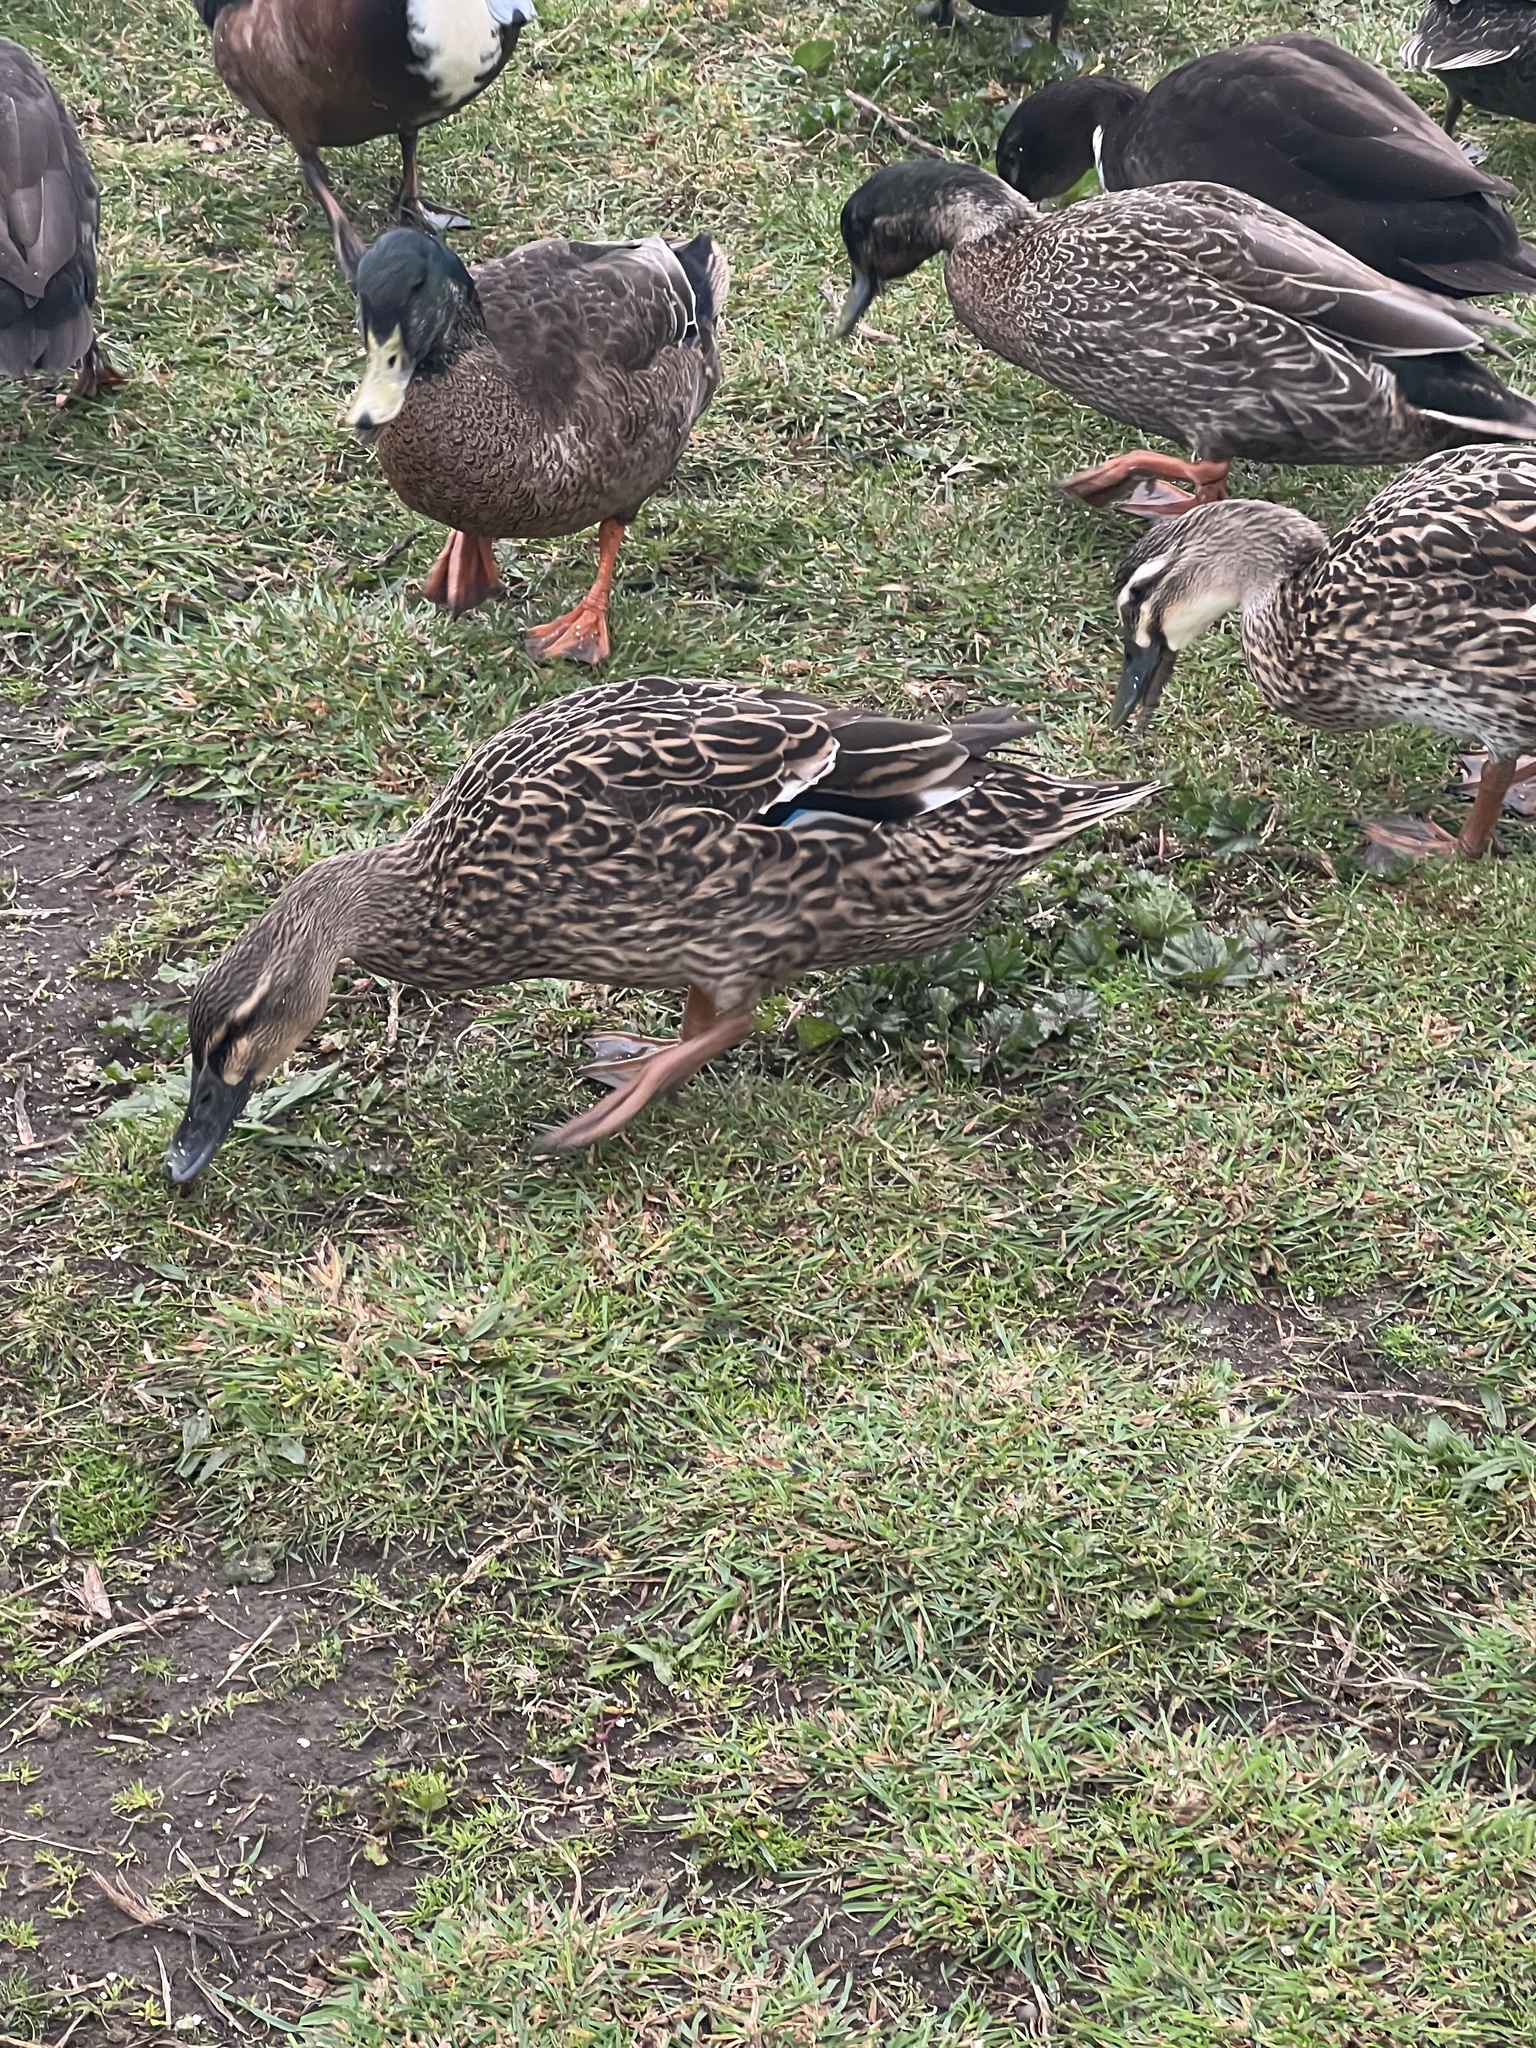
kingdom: Animalia
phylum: Chordata
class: Aves
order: Anseriformes
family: Anatidae
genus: Anas
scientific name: Anas
